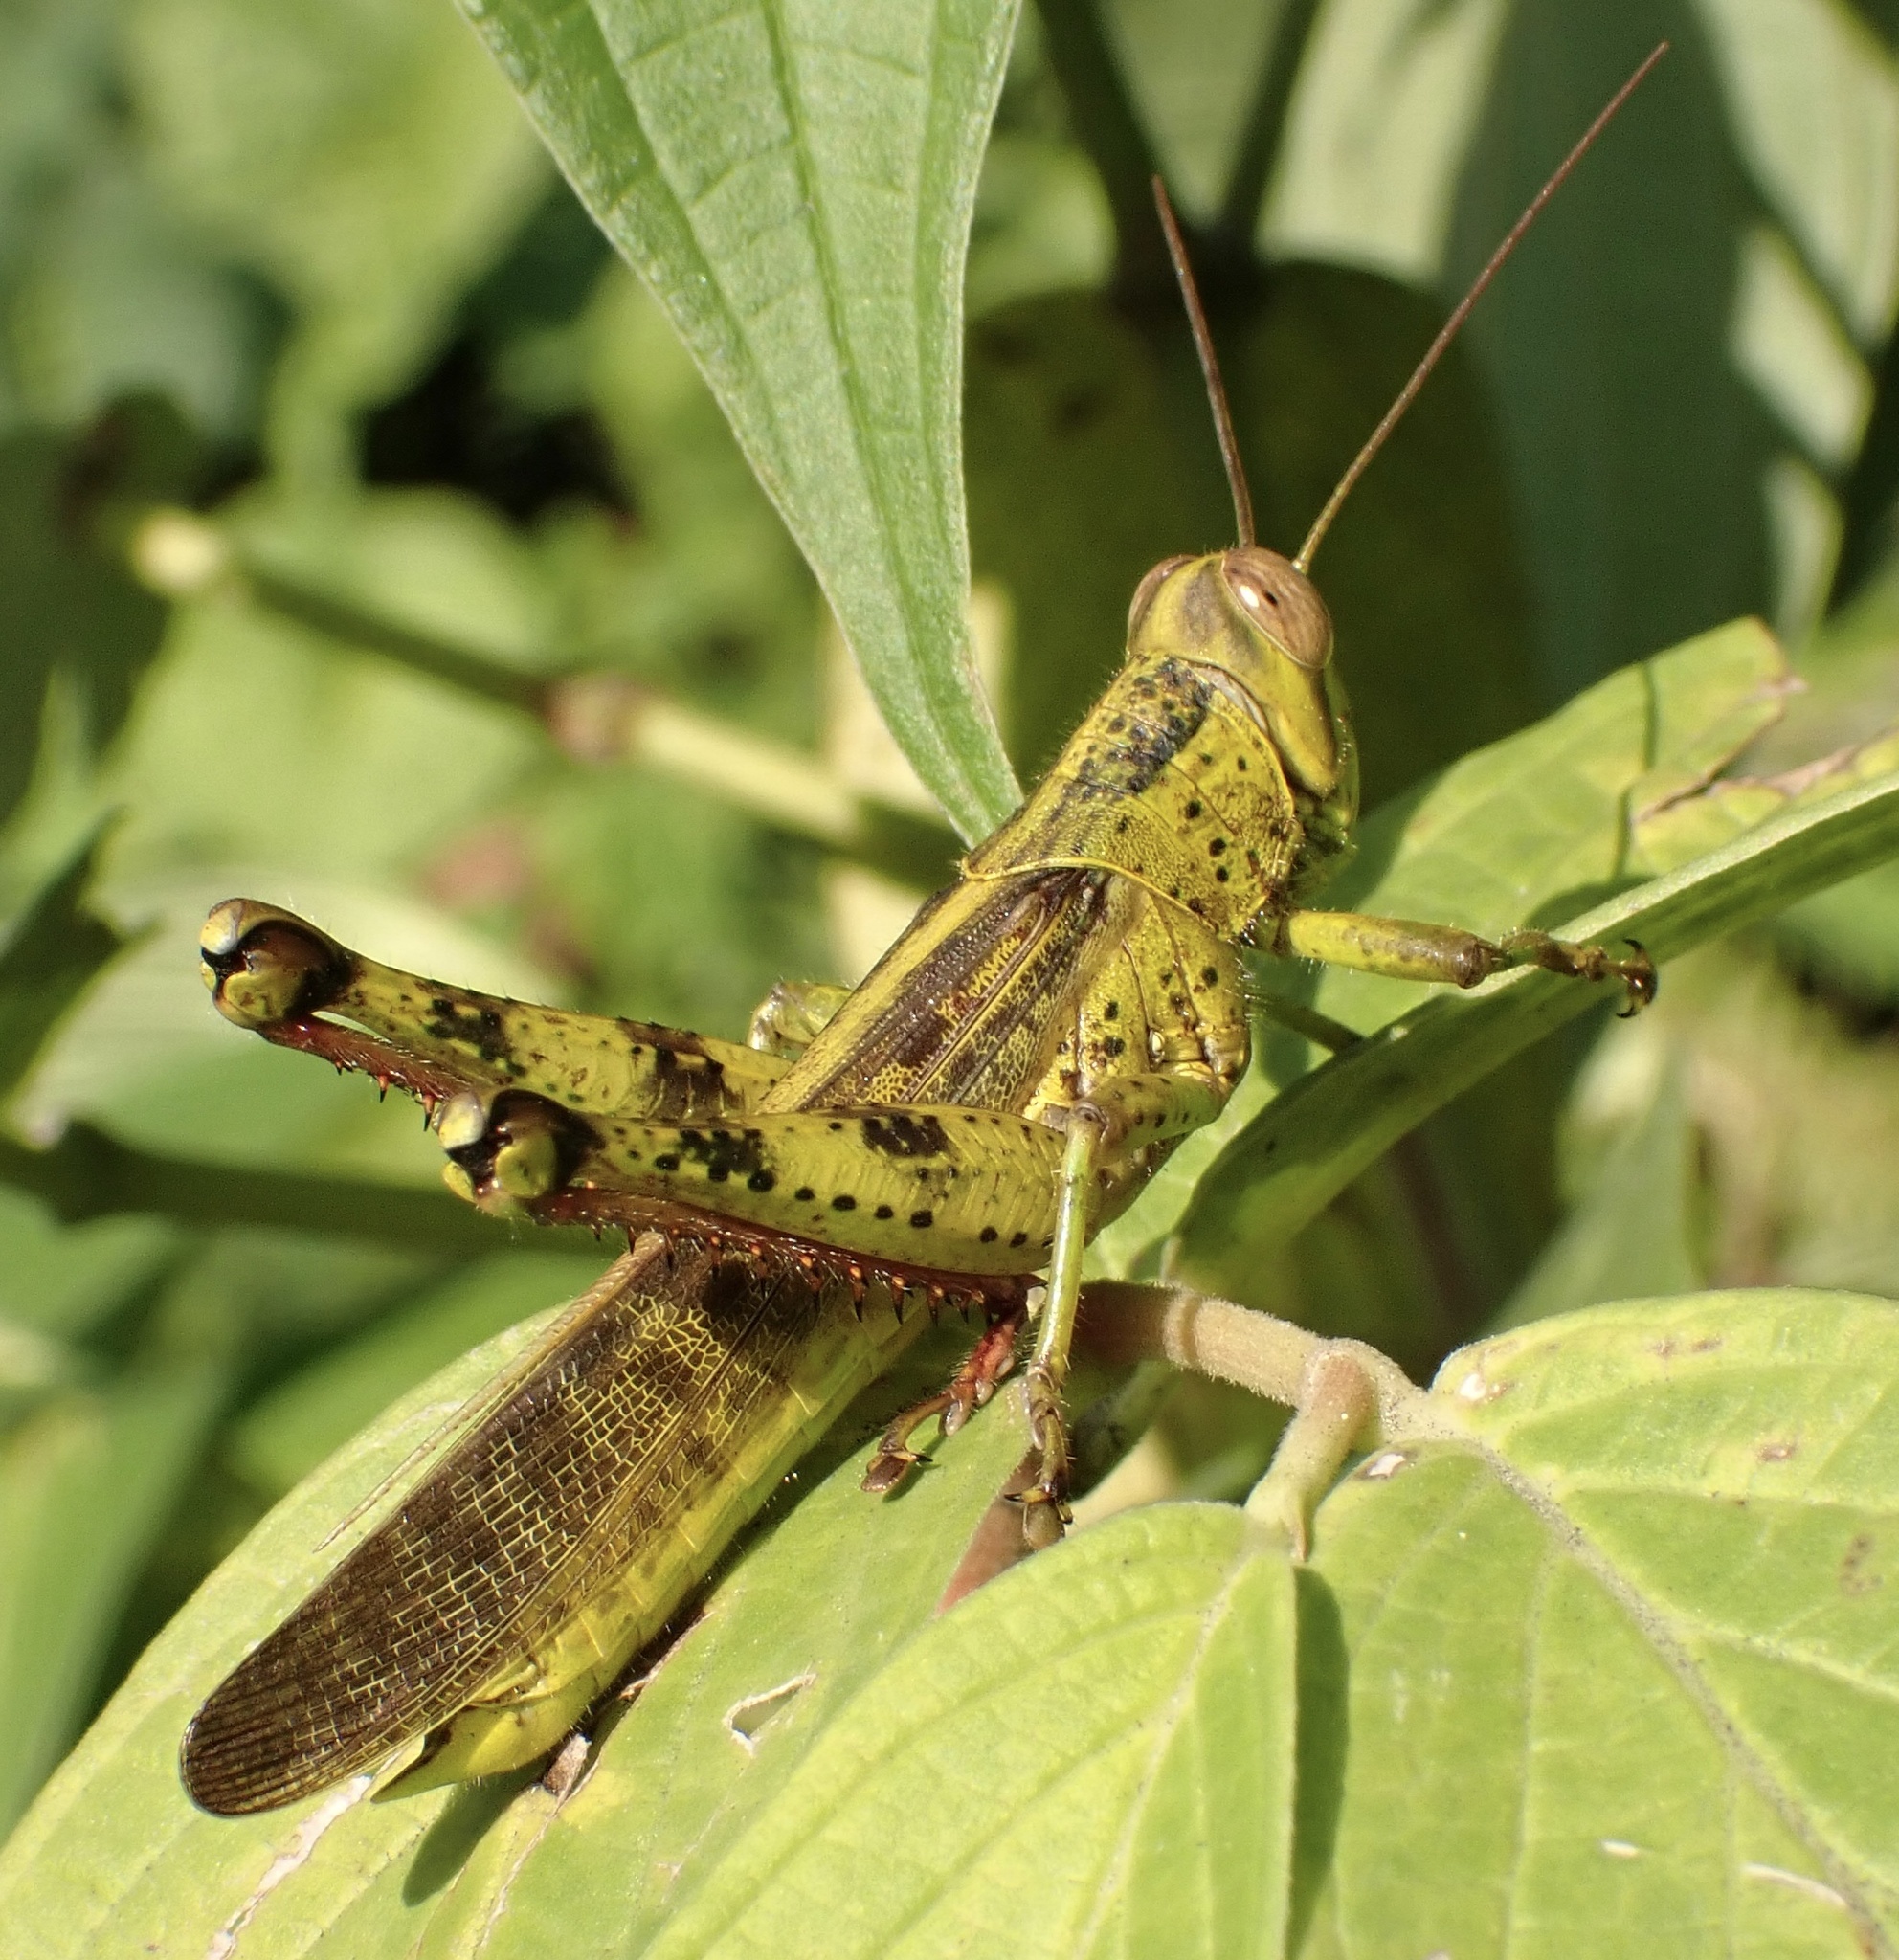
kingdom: Animalia
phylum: Arthropoda
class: Insecta
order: Orthoptera
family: Acrididae
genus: Valanga
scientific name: Valanga nigricornis
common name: Javanese bird grasshopper
